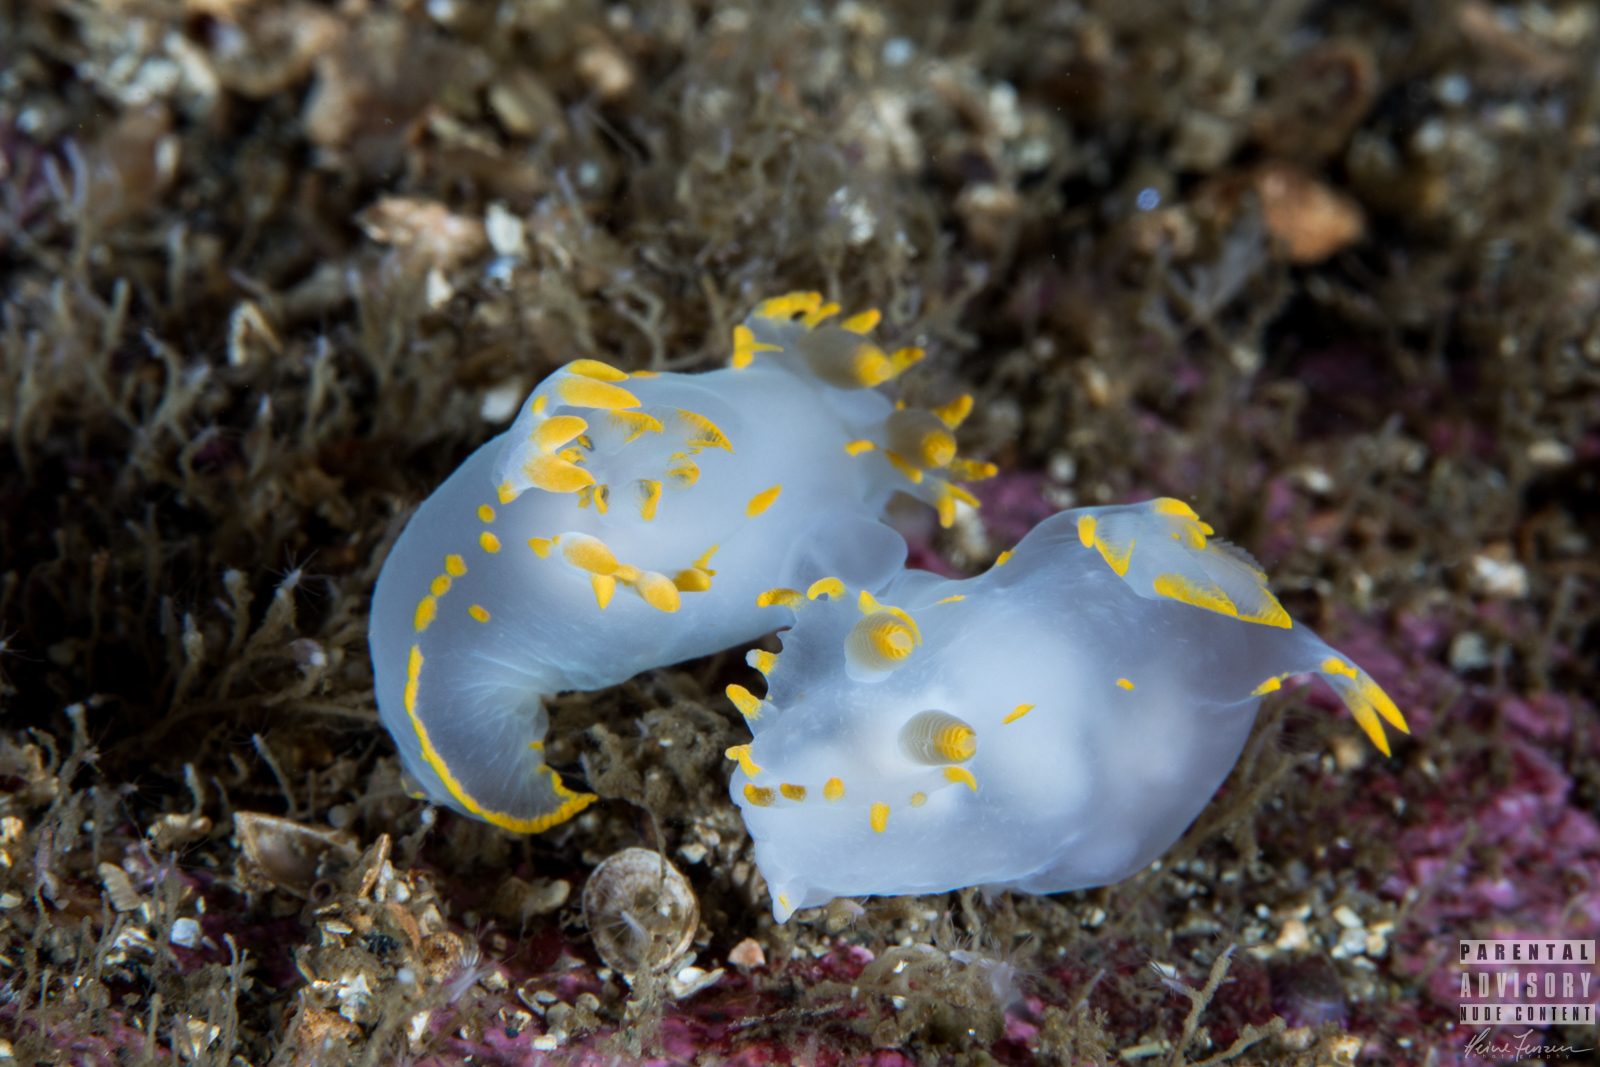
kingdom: Animalia
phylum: Mollusca
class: Gastropoda
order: Nudibranchia
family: Polyceridae
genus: Polycera
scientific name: Polycera faeroensis
